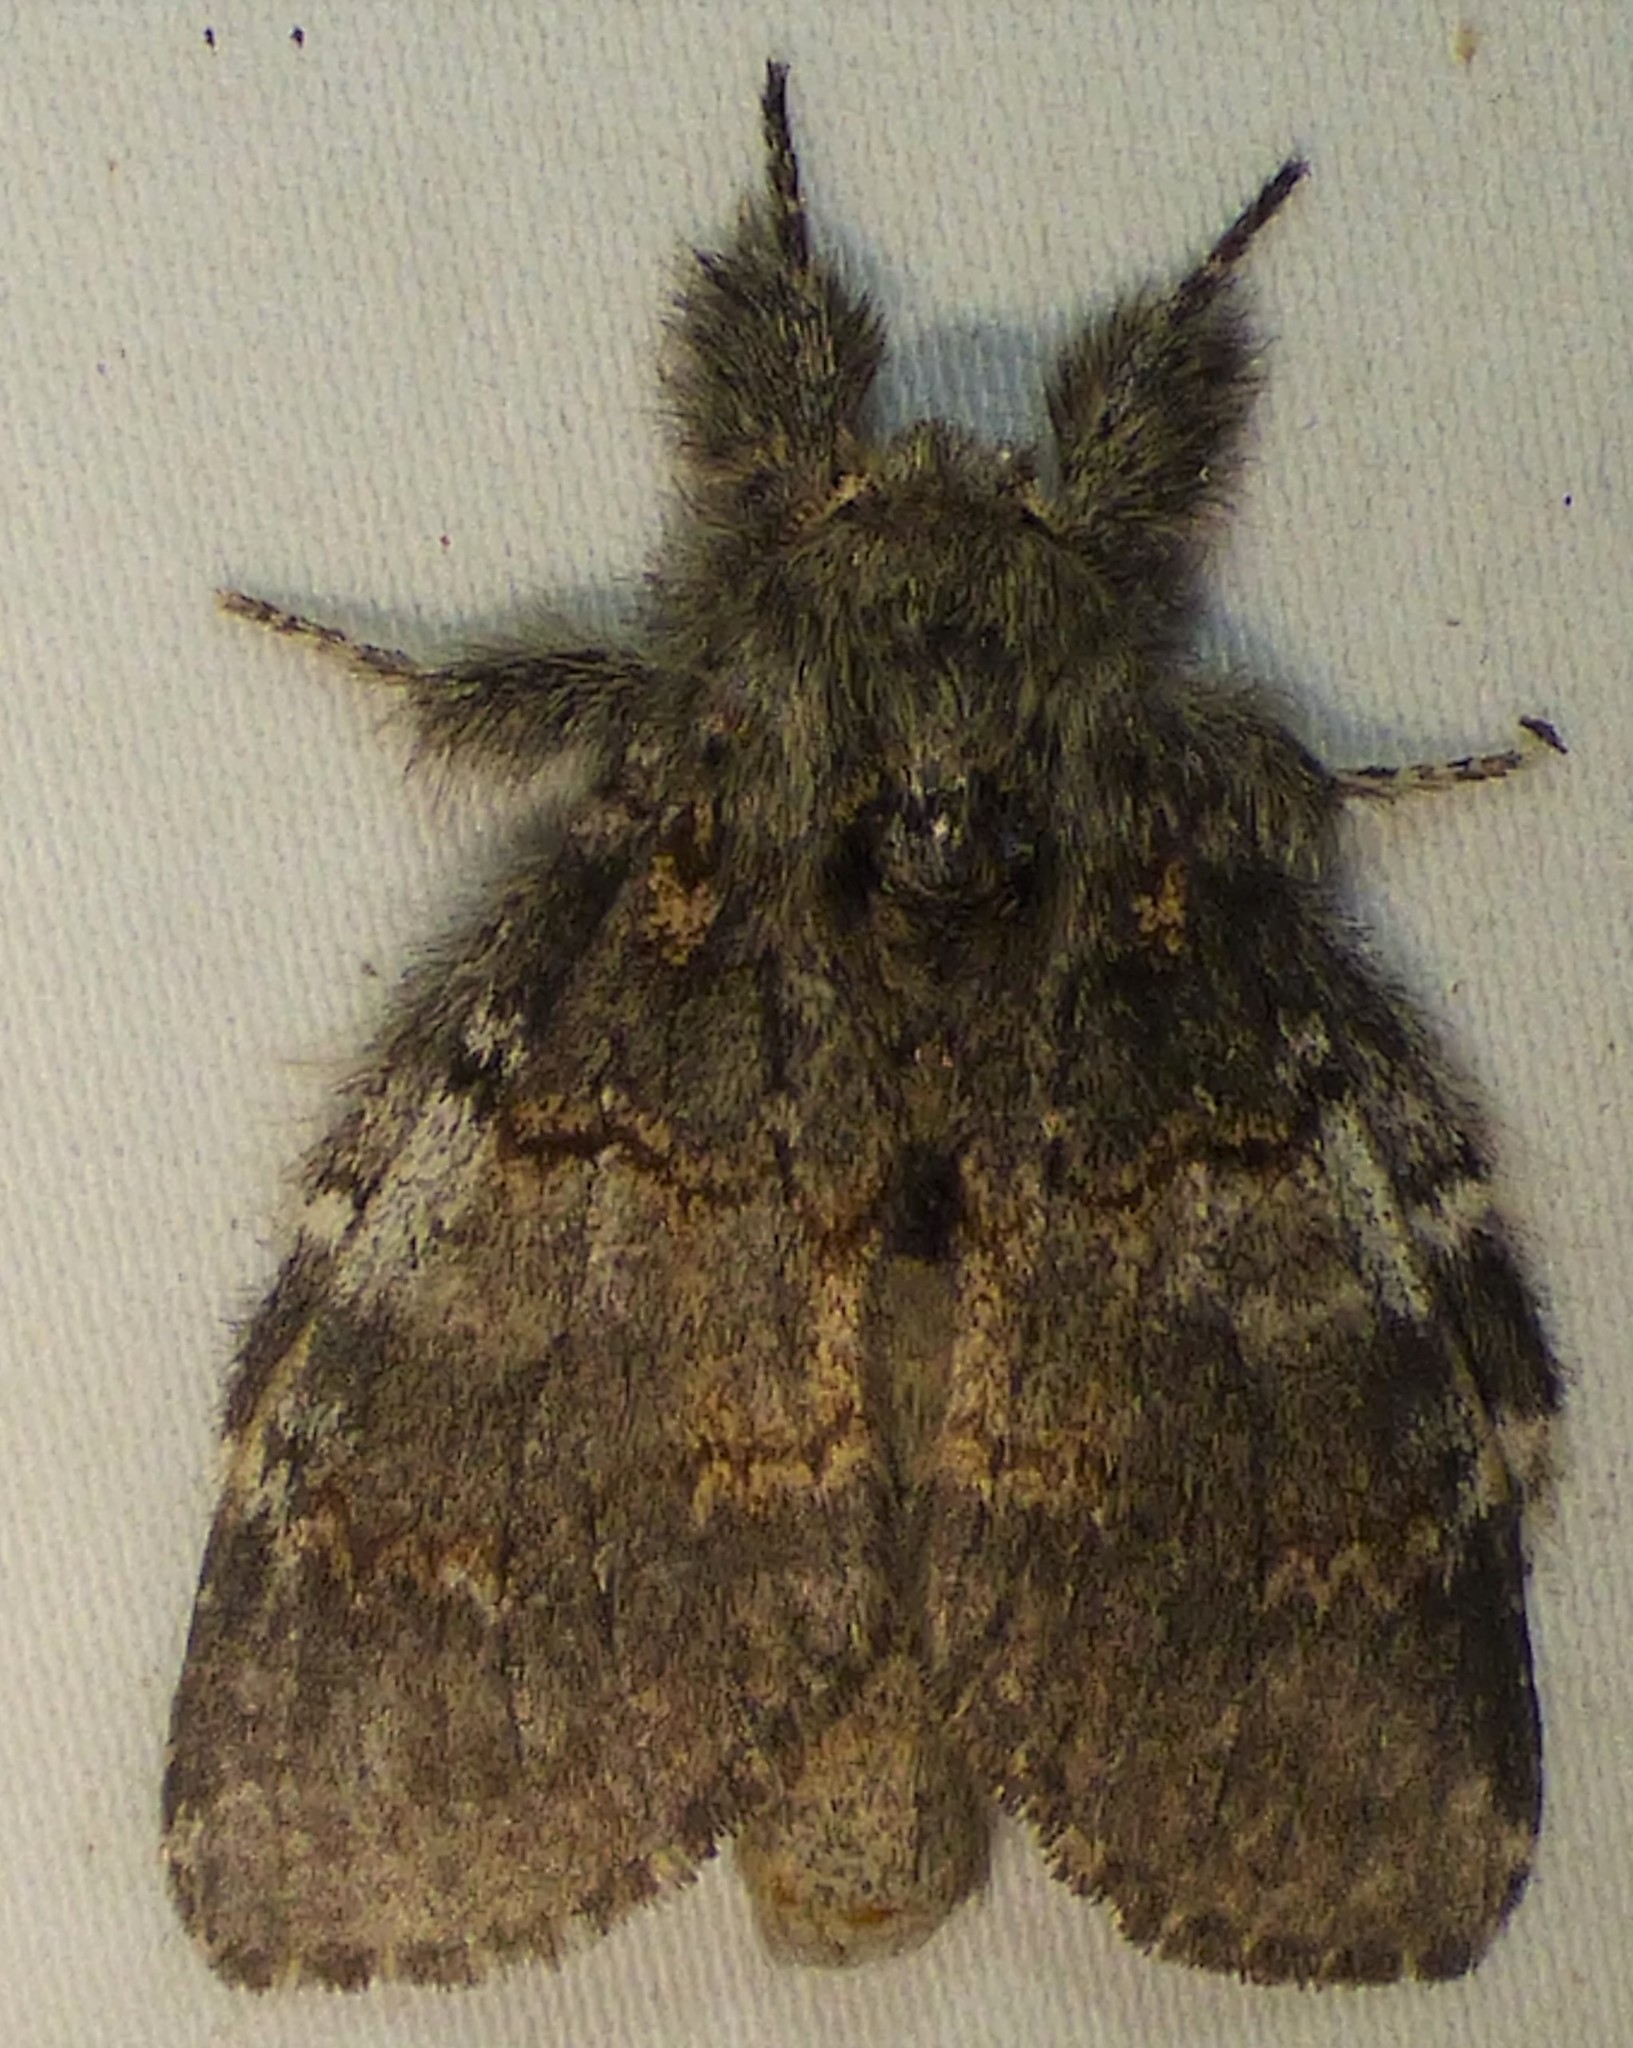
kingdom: Animalia
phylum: Arthropoda
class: Insecta
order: Lepidoptera
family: Notodontidae
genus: Peridea
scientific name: Peridea angulosa
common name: Angulose prominent
